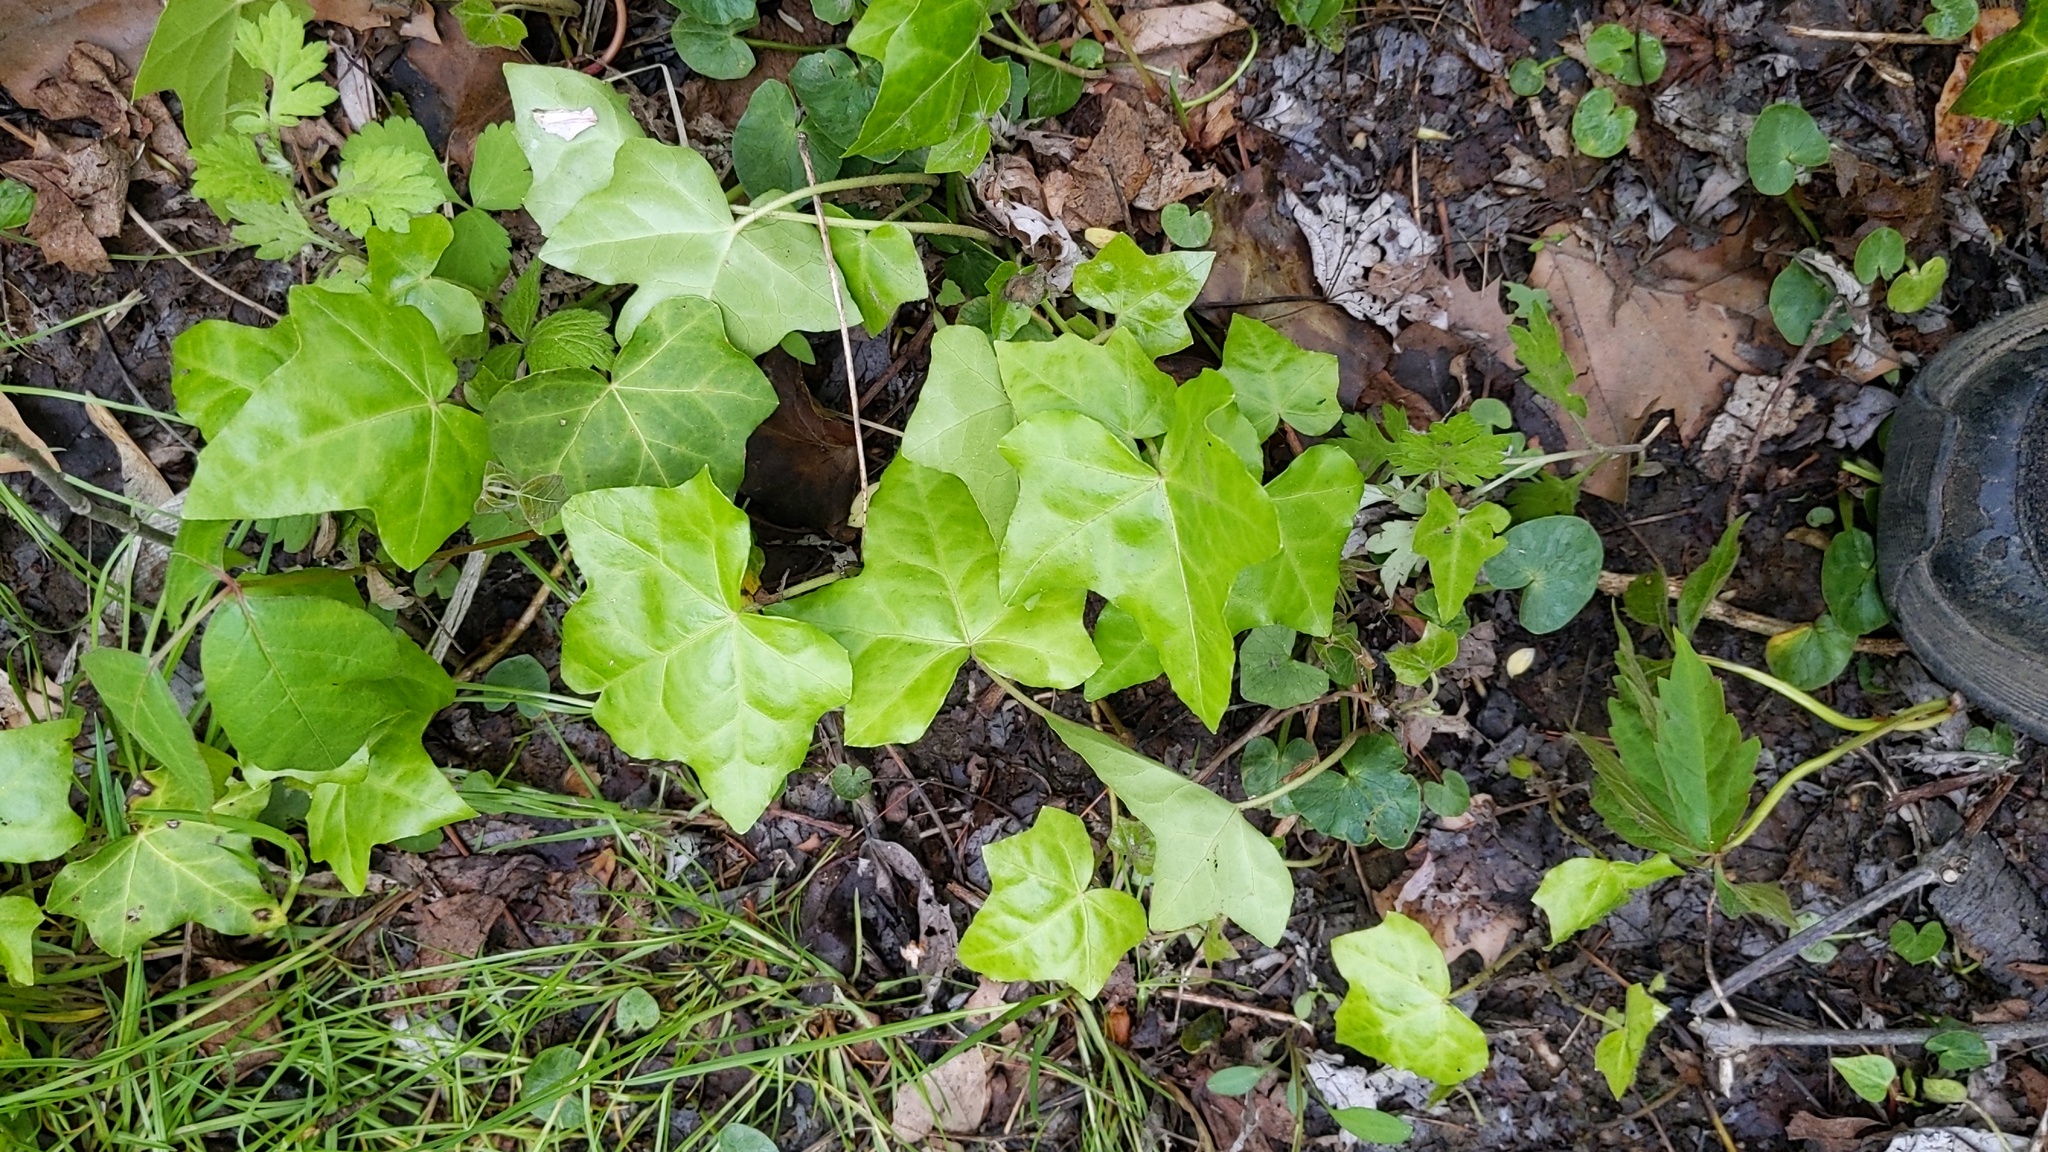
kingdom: Plantae
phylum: Tracheophyta
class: Magnoliopsida
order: Apiales
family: Araliaceae
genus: Hedera
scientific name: Hedera helix
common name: Ivy
